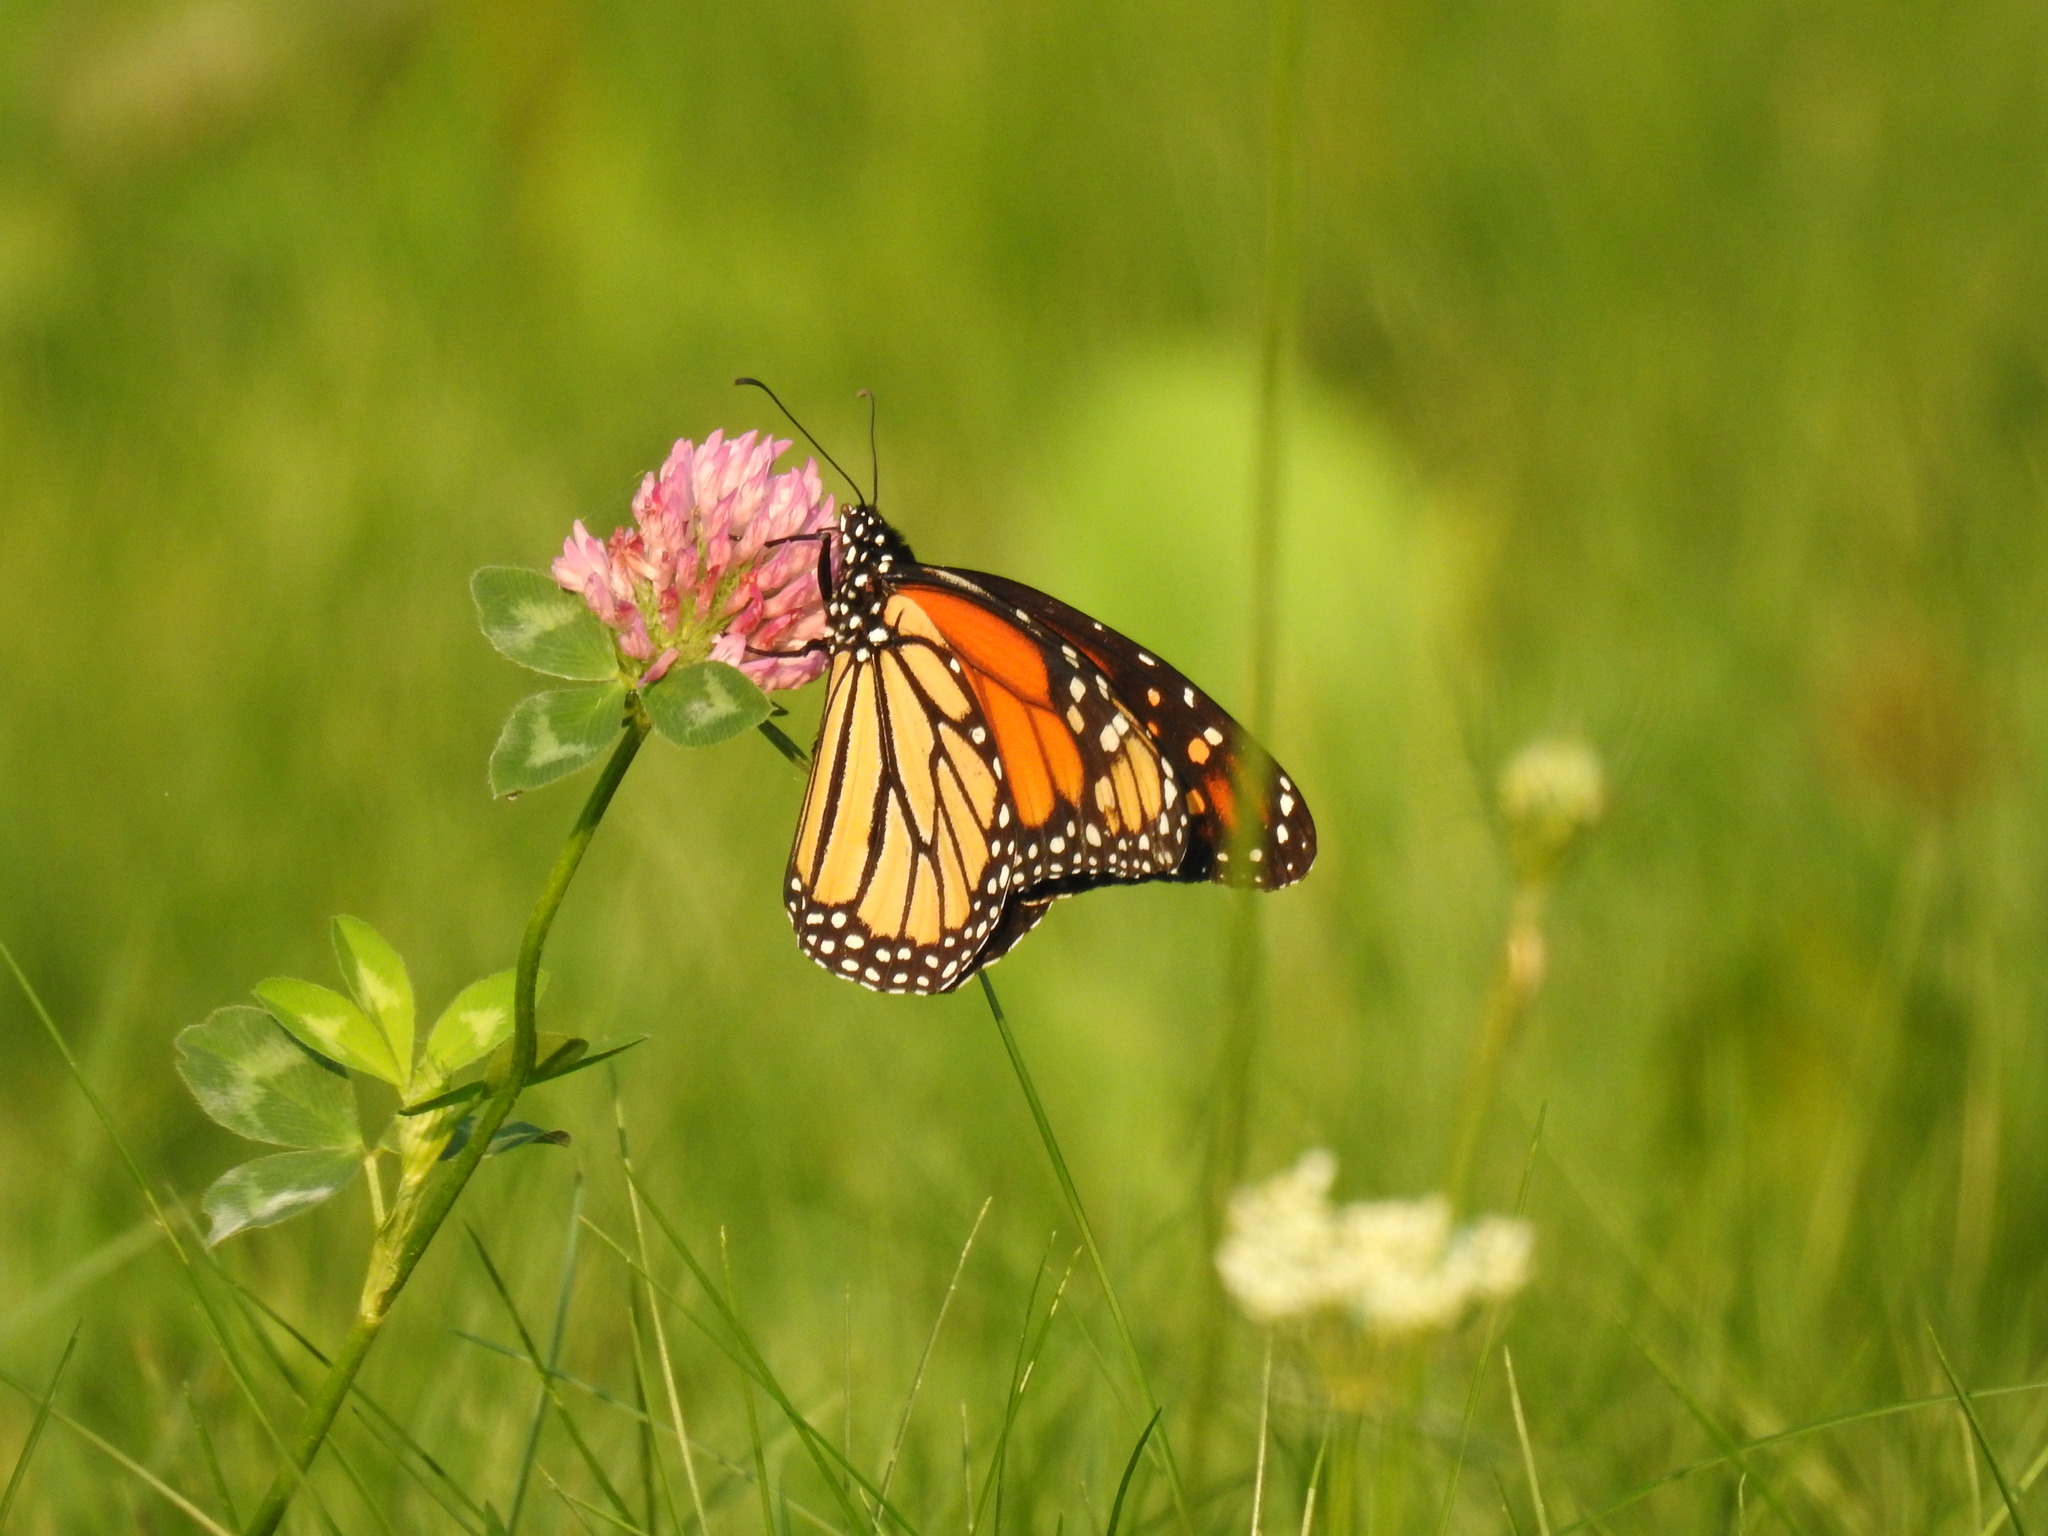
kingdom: Animalia
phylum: Arthropoda
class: Insecta
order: Lepidoptera
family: Nymphalidae
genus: Danaus
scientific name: Danaus plexippus
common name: Monarch
